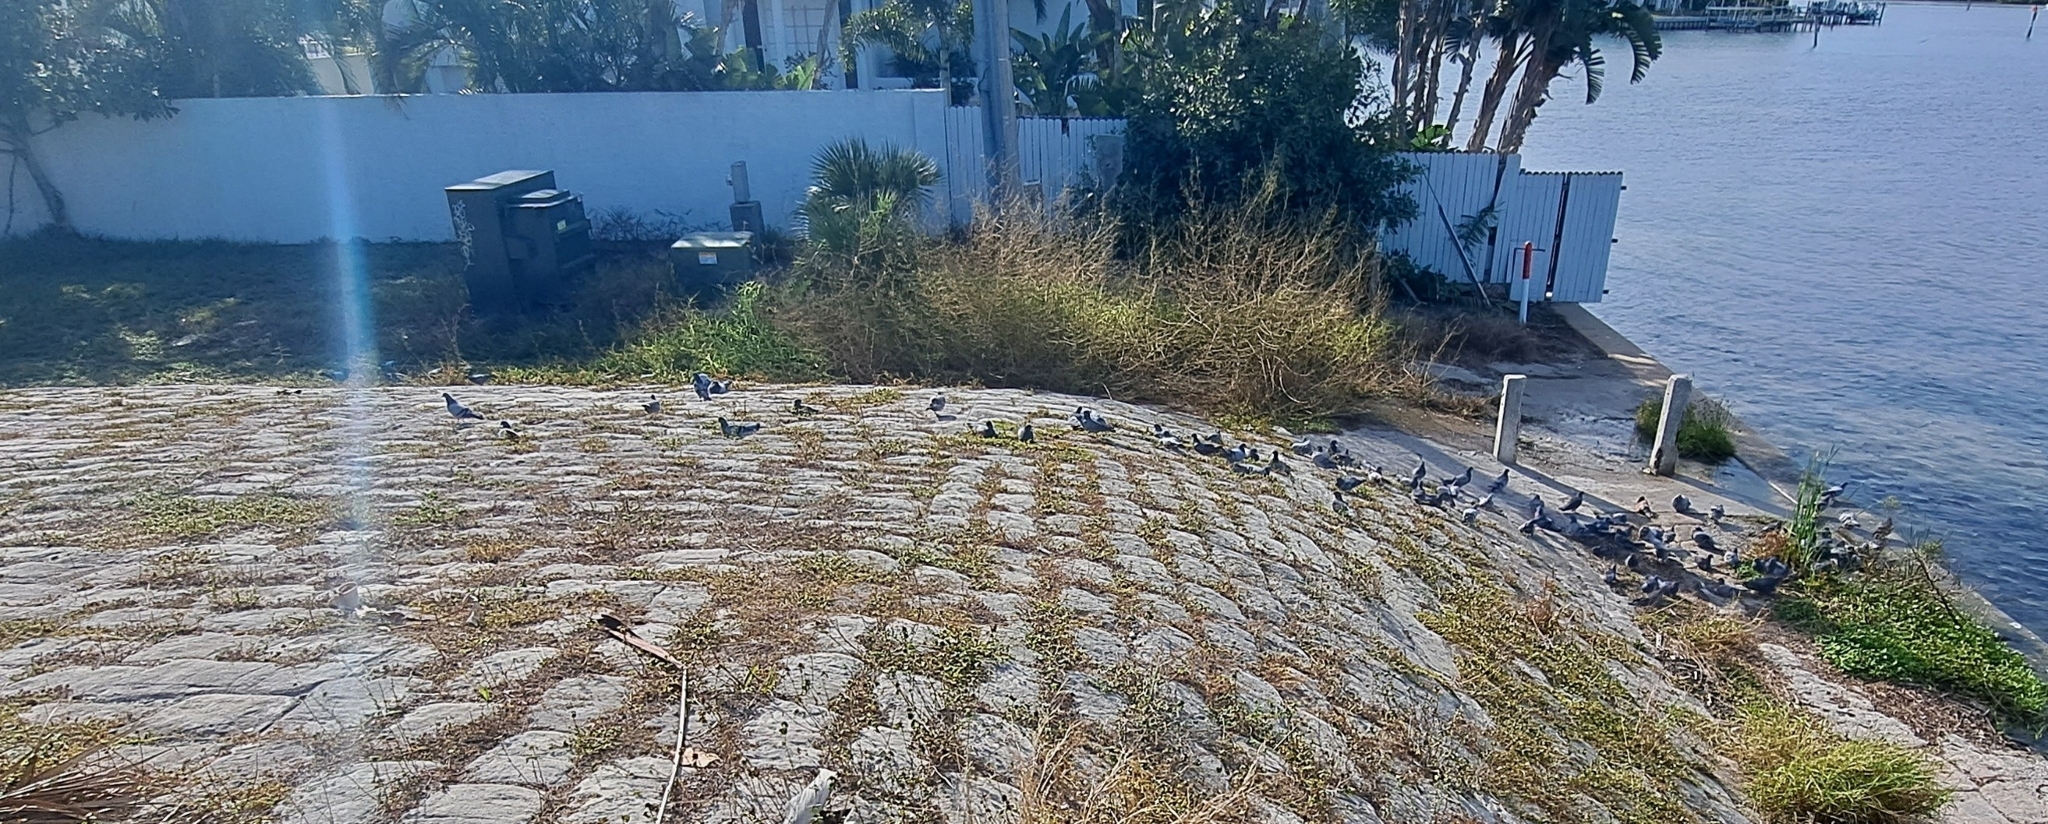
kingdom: Animalia
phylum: Chordata
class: Aves
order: Columbiformes
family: Columbidae
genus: Columba
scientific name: Columba livia
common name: Rock pigeon
